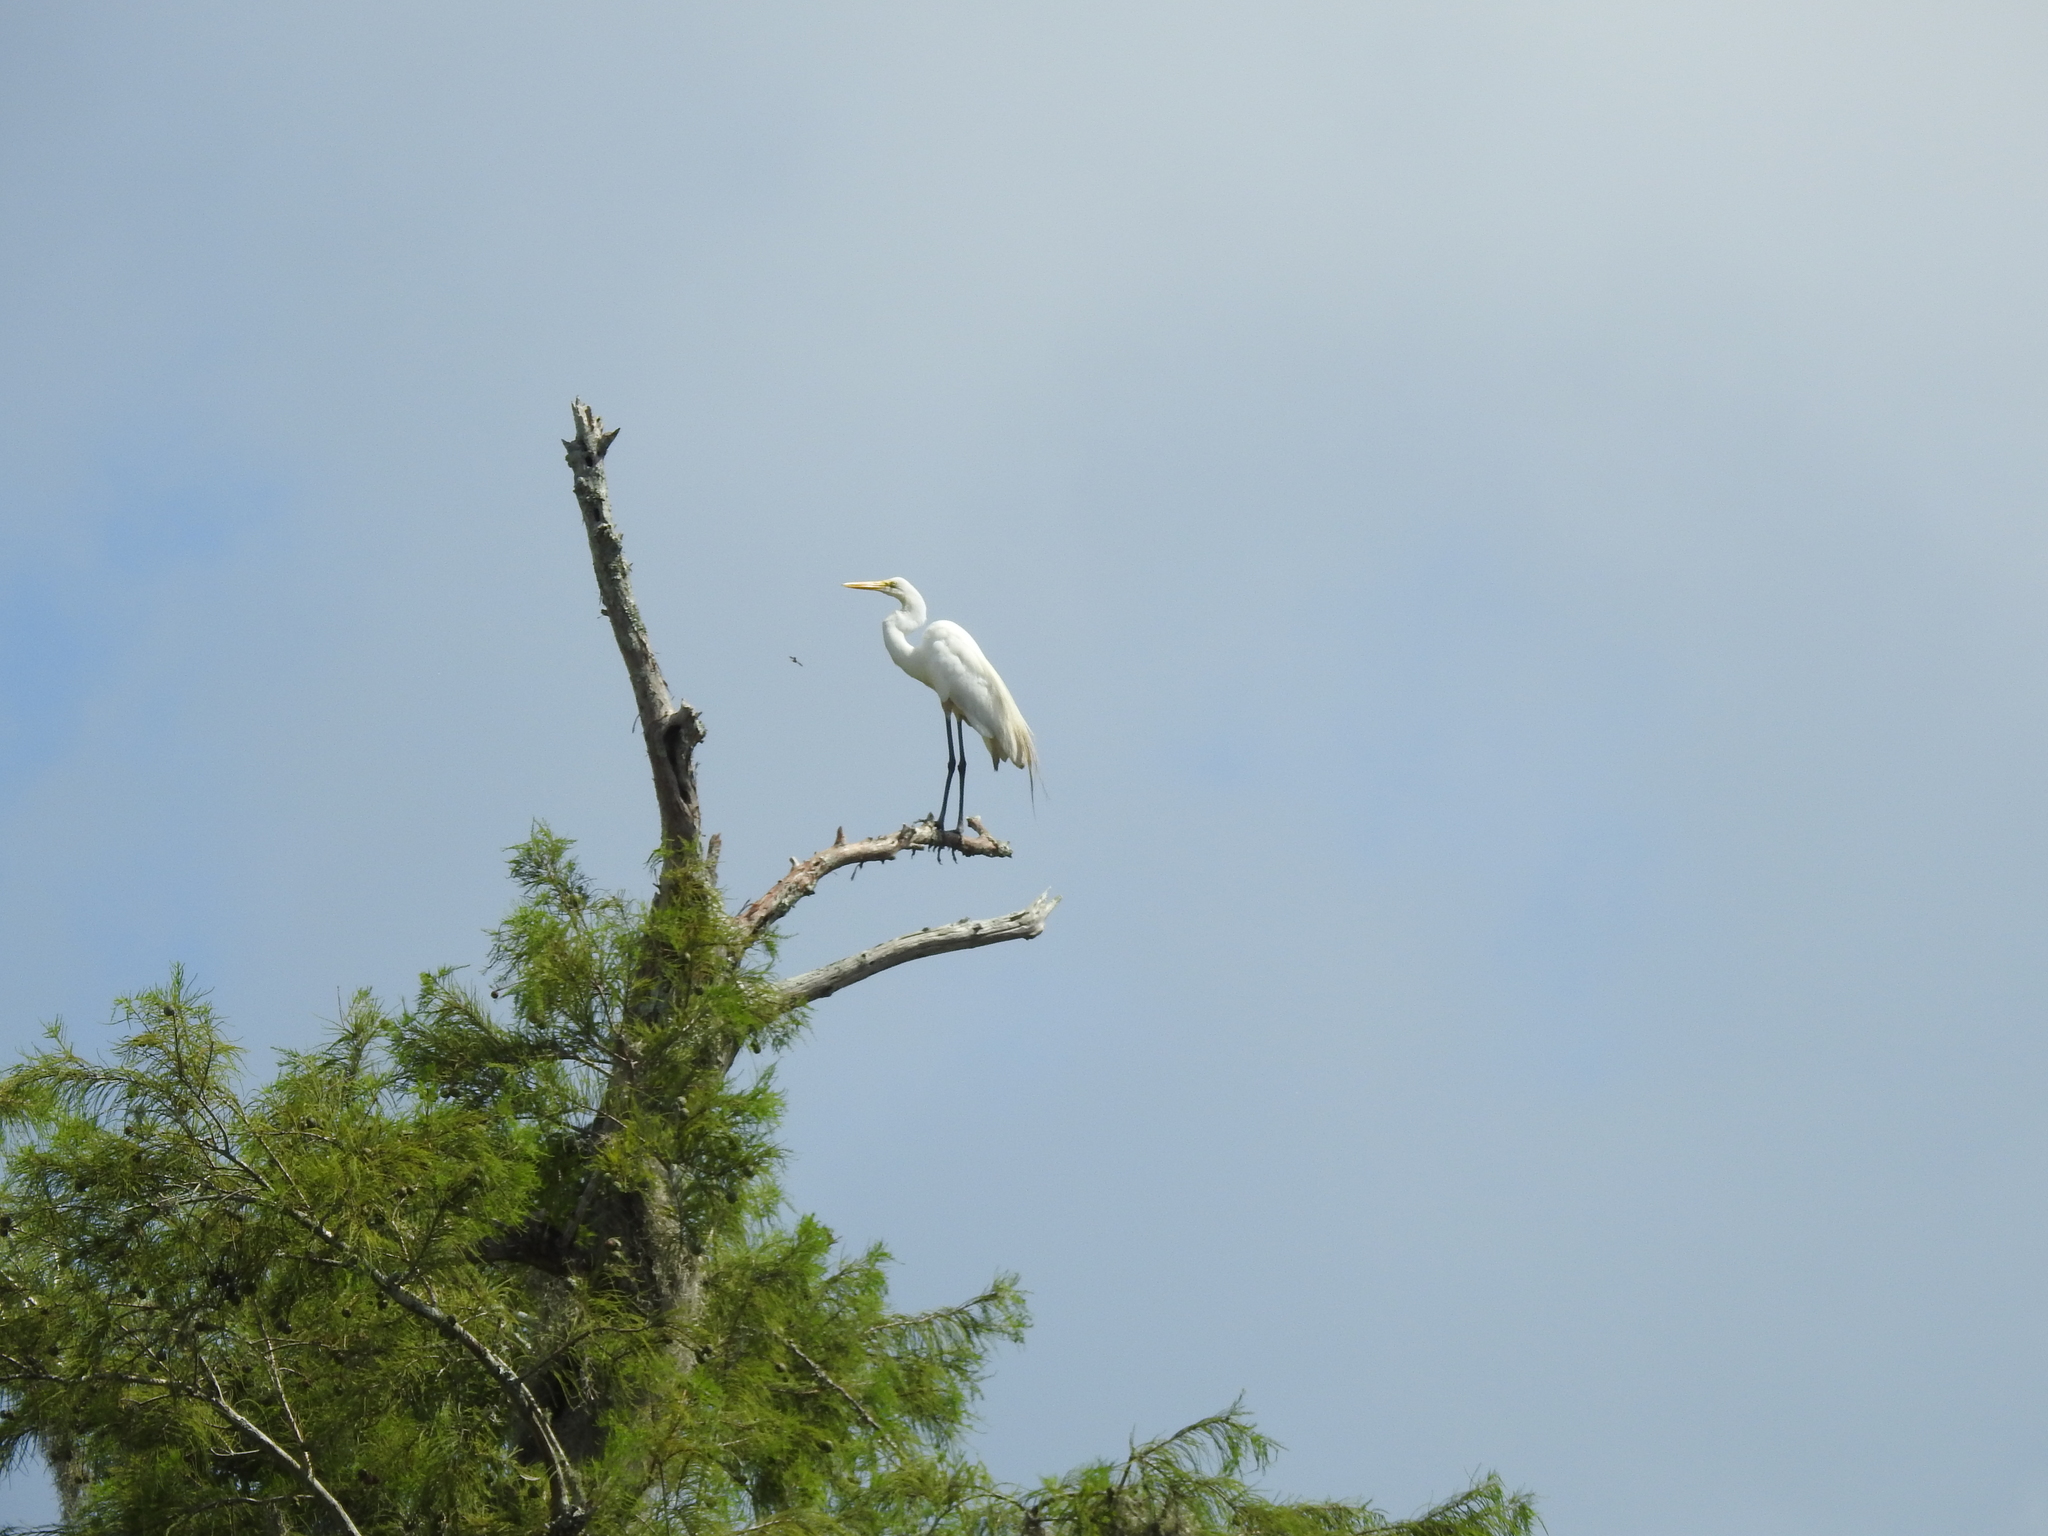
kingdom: Animalia
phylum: Chordata
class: Aves
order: Pelecaniformes
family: Ardeidae
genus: Ardea
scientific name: Ardea alba
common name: Great egret
